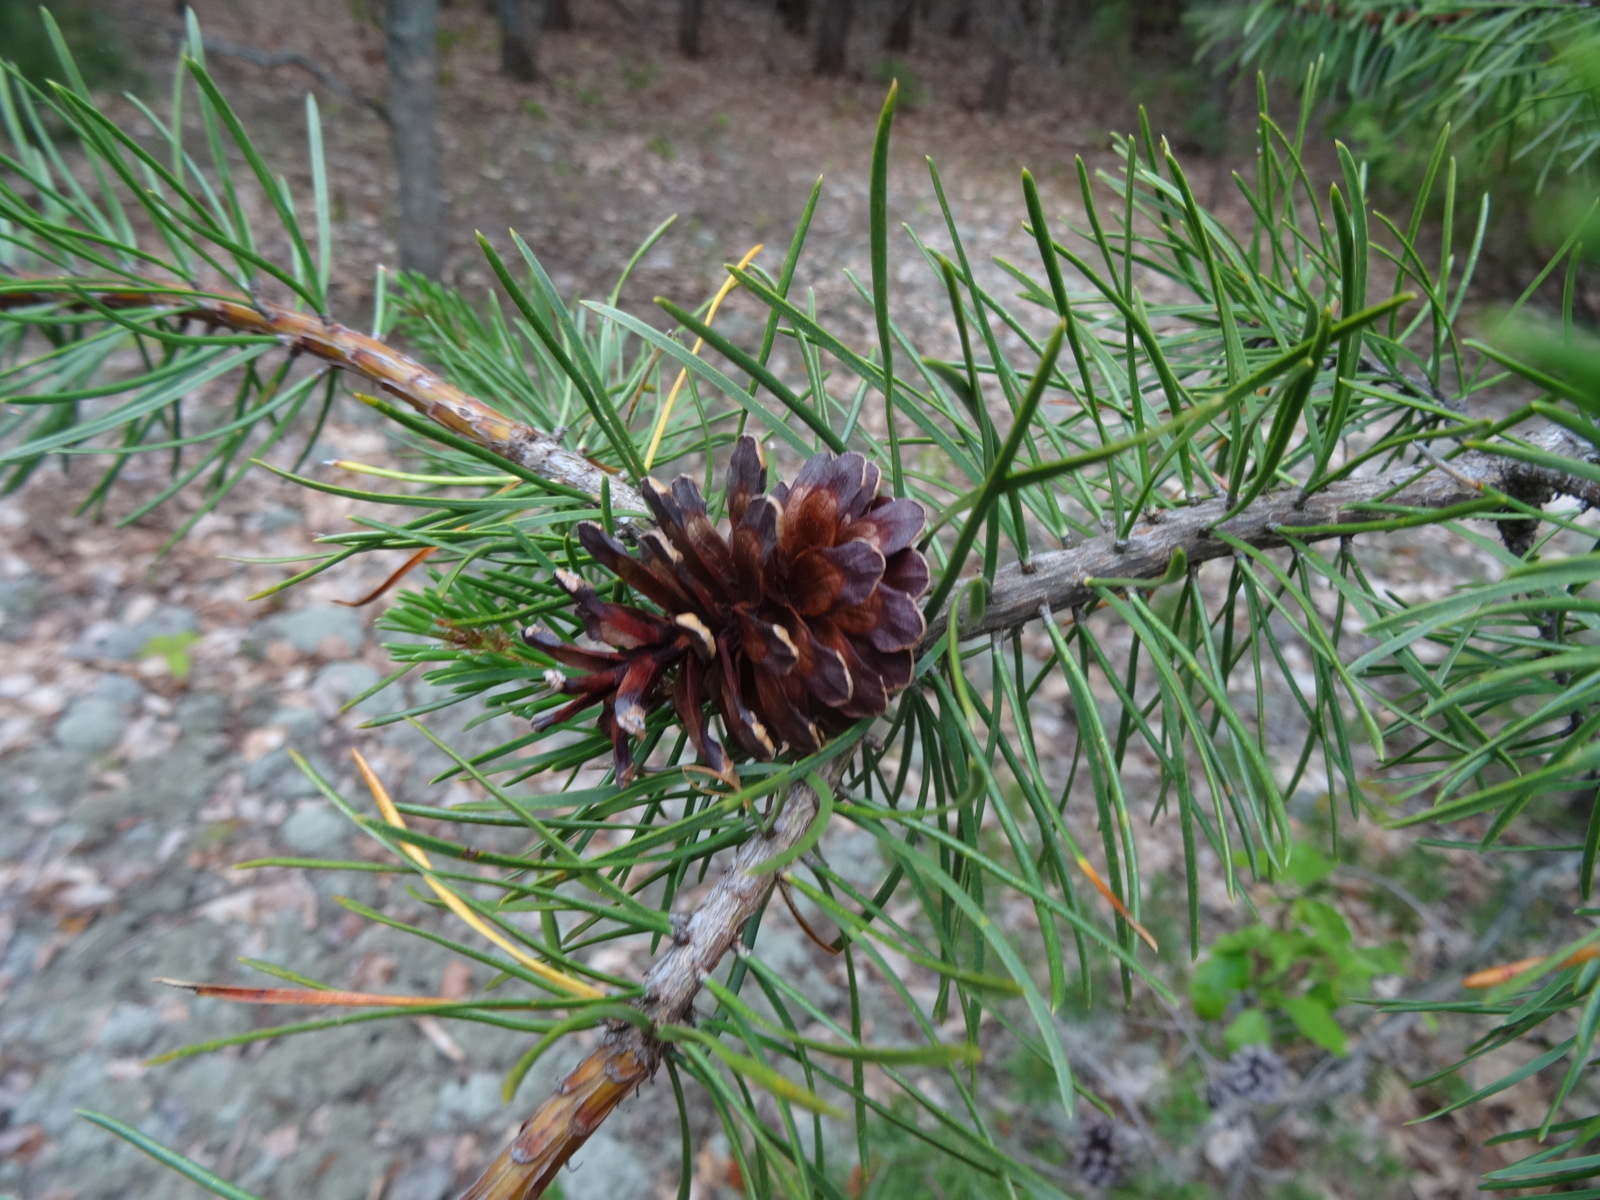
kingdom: Plantae
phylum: Tracheophyta
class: Pinopsida
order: Pinales
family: Pinaceae
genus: Pinus
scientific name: Pinus banksiana
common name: Jack pine
